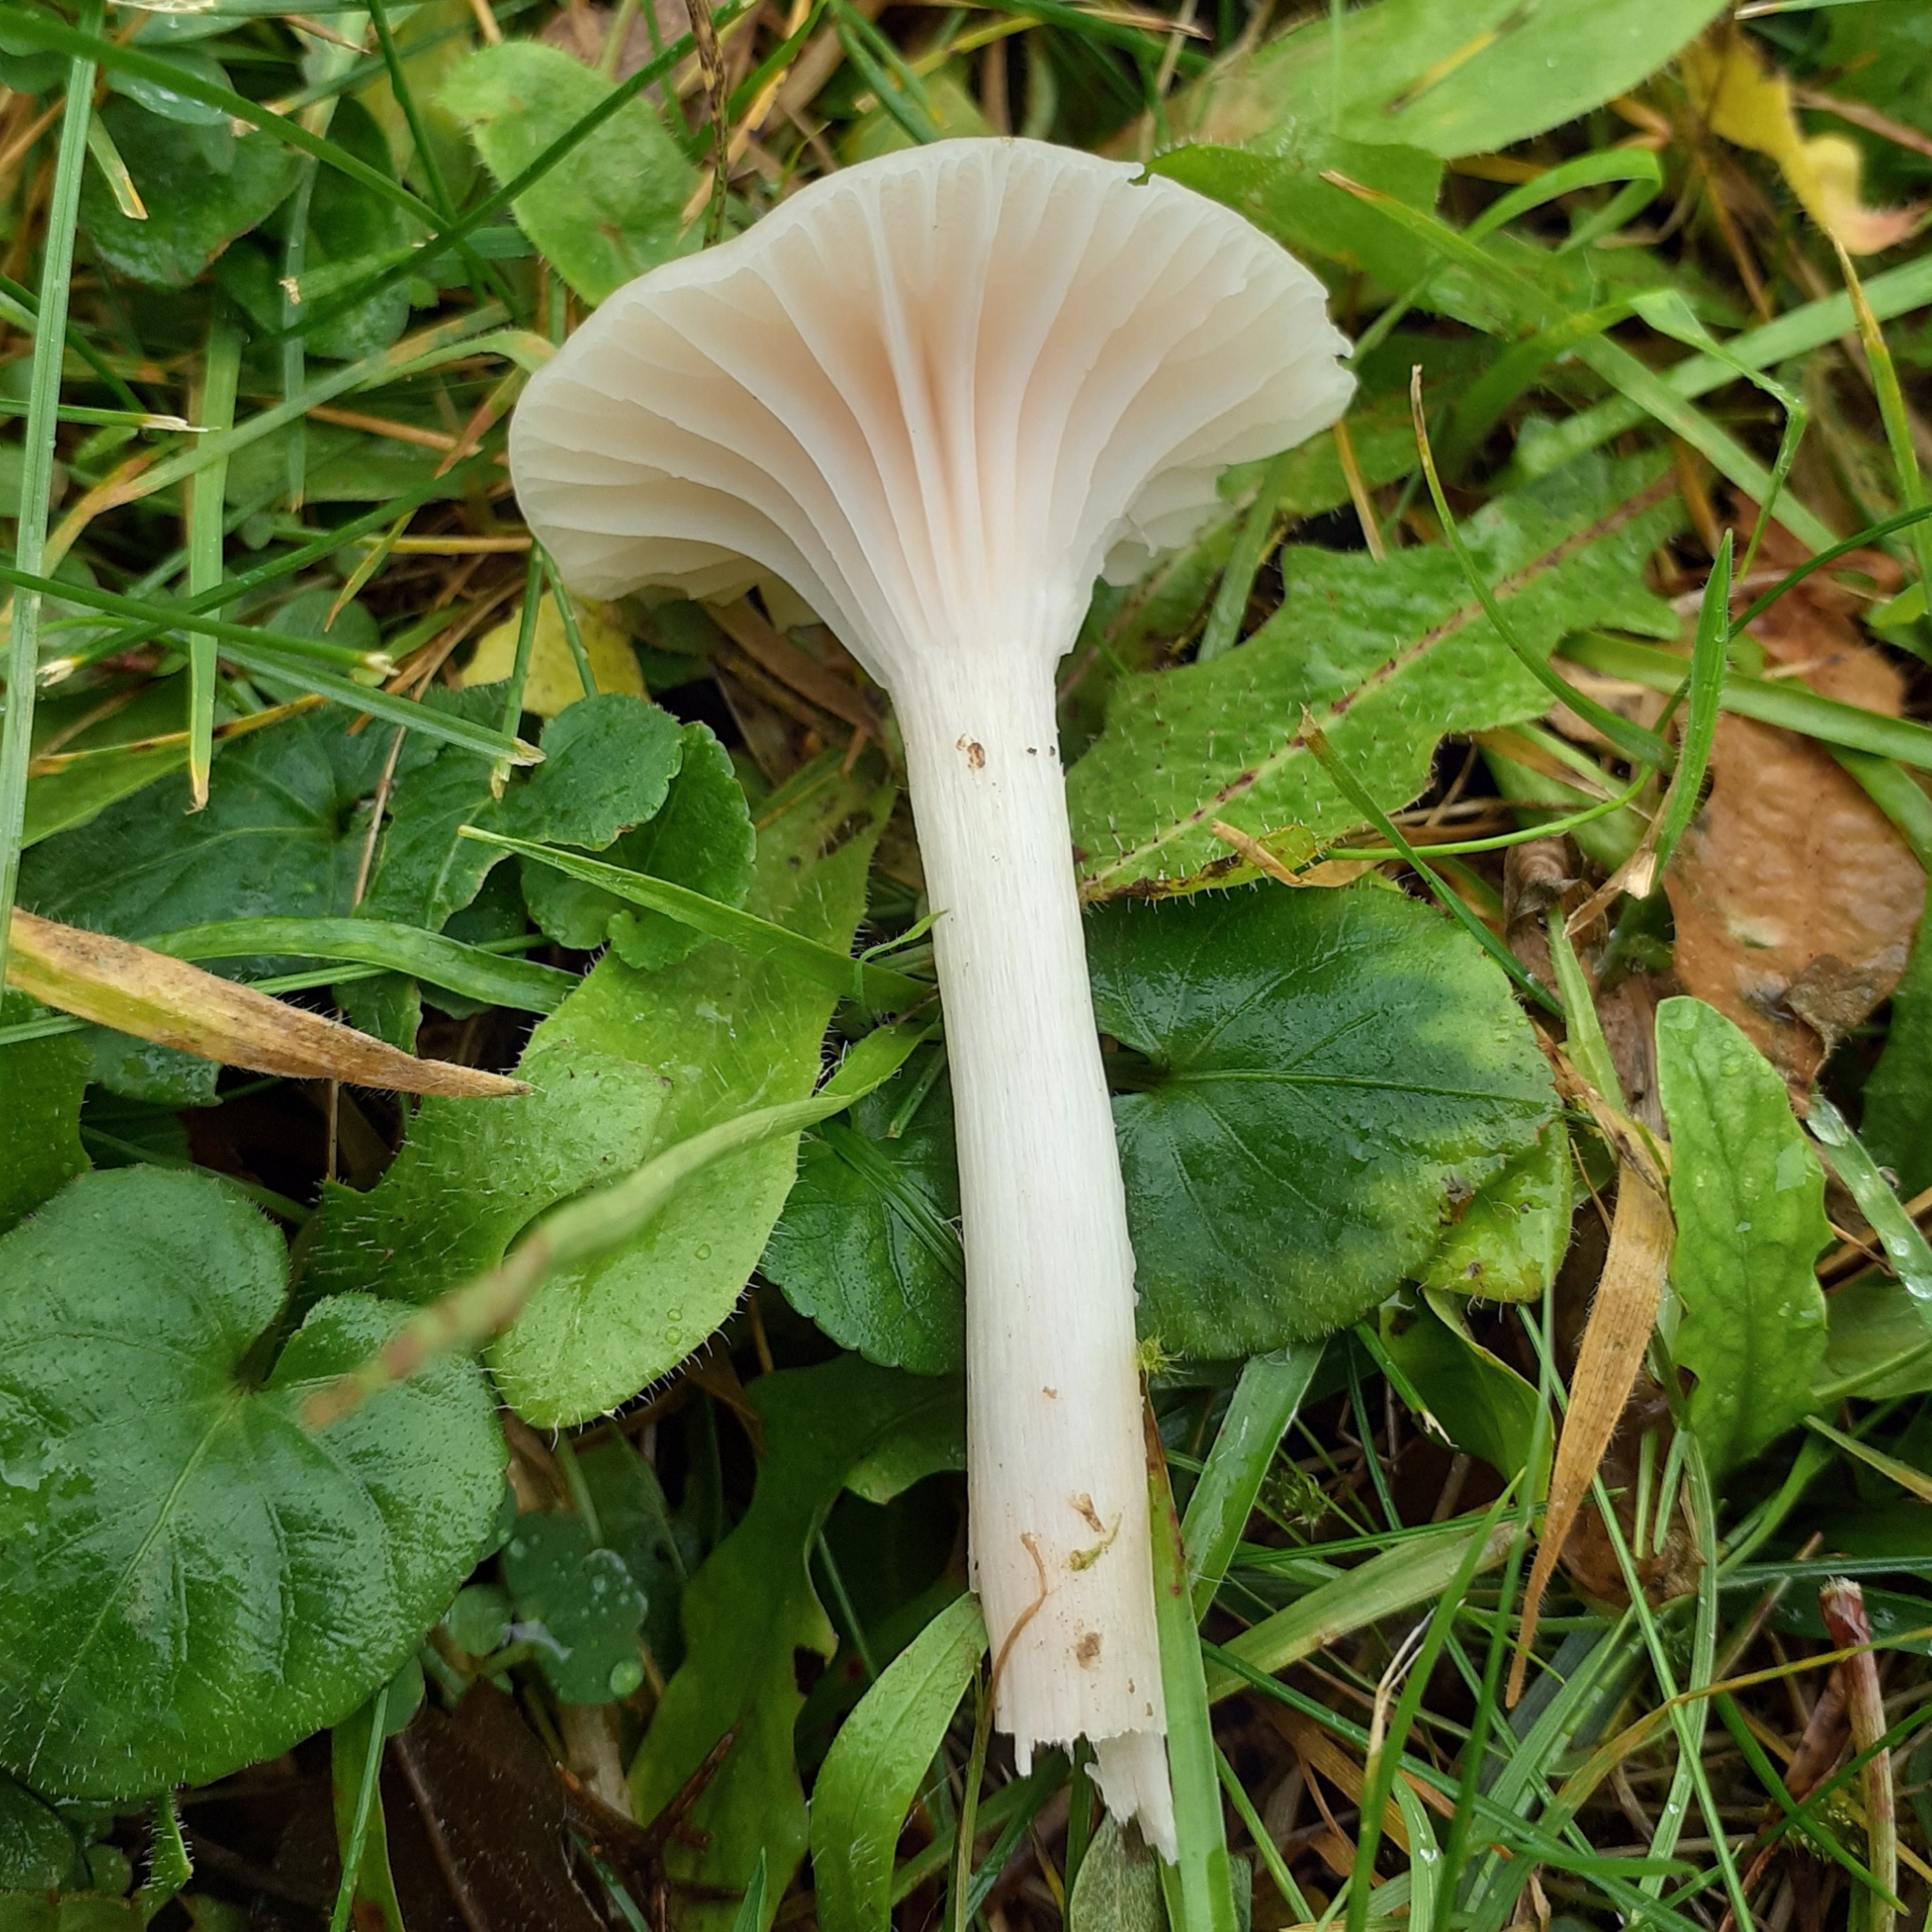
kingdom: Fungi
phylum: Basidiomycota
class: Agaricomycetes
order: Agaricales
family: Hygrophoraceae
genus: Cuphophyllus
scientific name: Cuphophyllus virgineus
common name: Snowy waxcap
